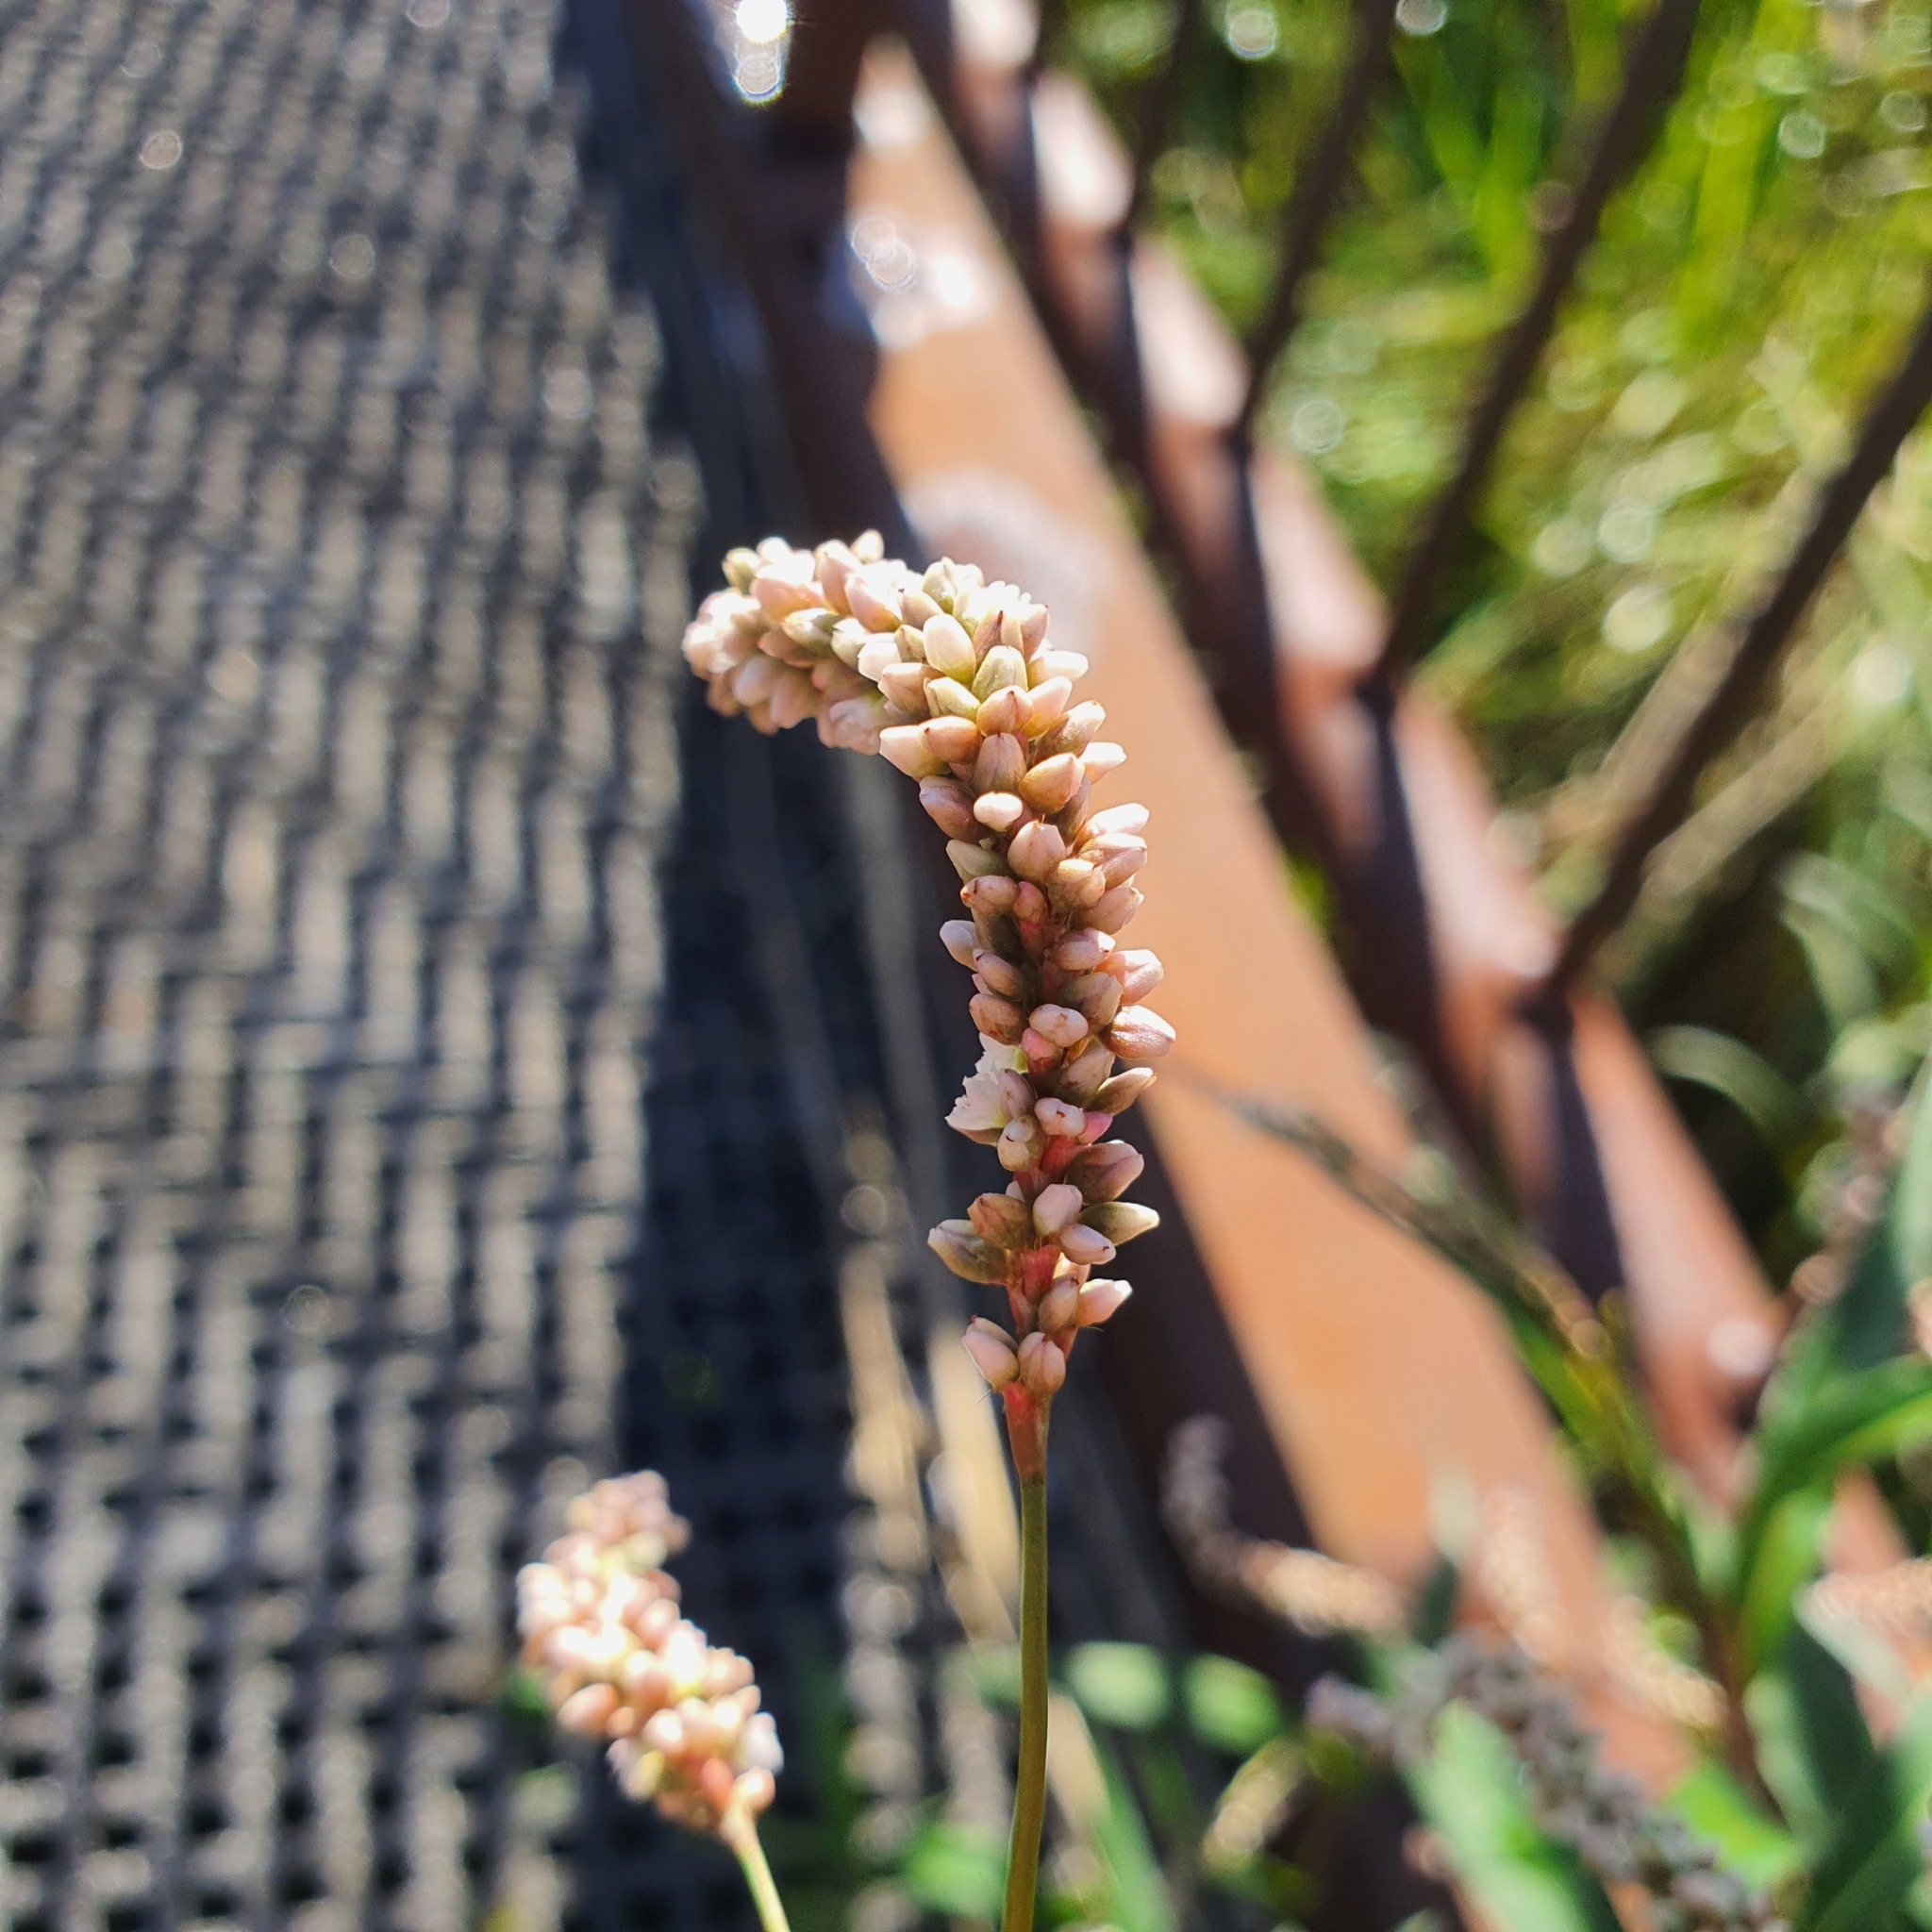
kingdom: Plantae
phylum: Tracheophyta
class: Magnoliopsida
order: Caryophyllales
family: Polygonaceae
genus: Persicaria
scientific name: Persicaria decipiens
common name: Willow-weed
